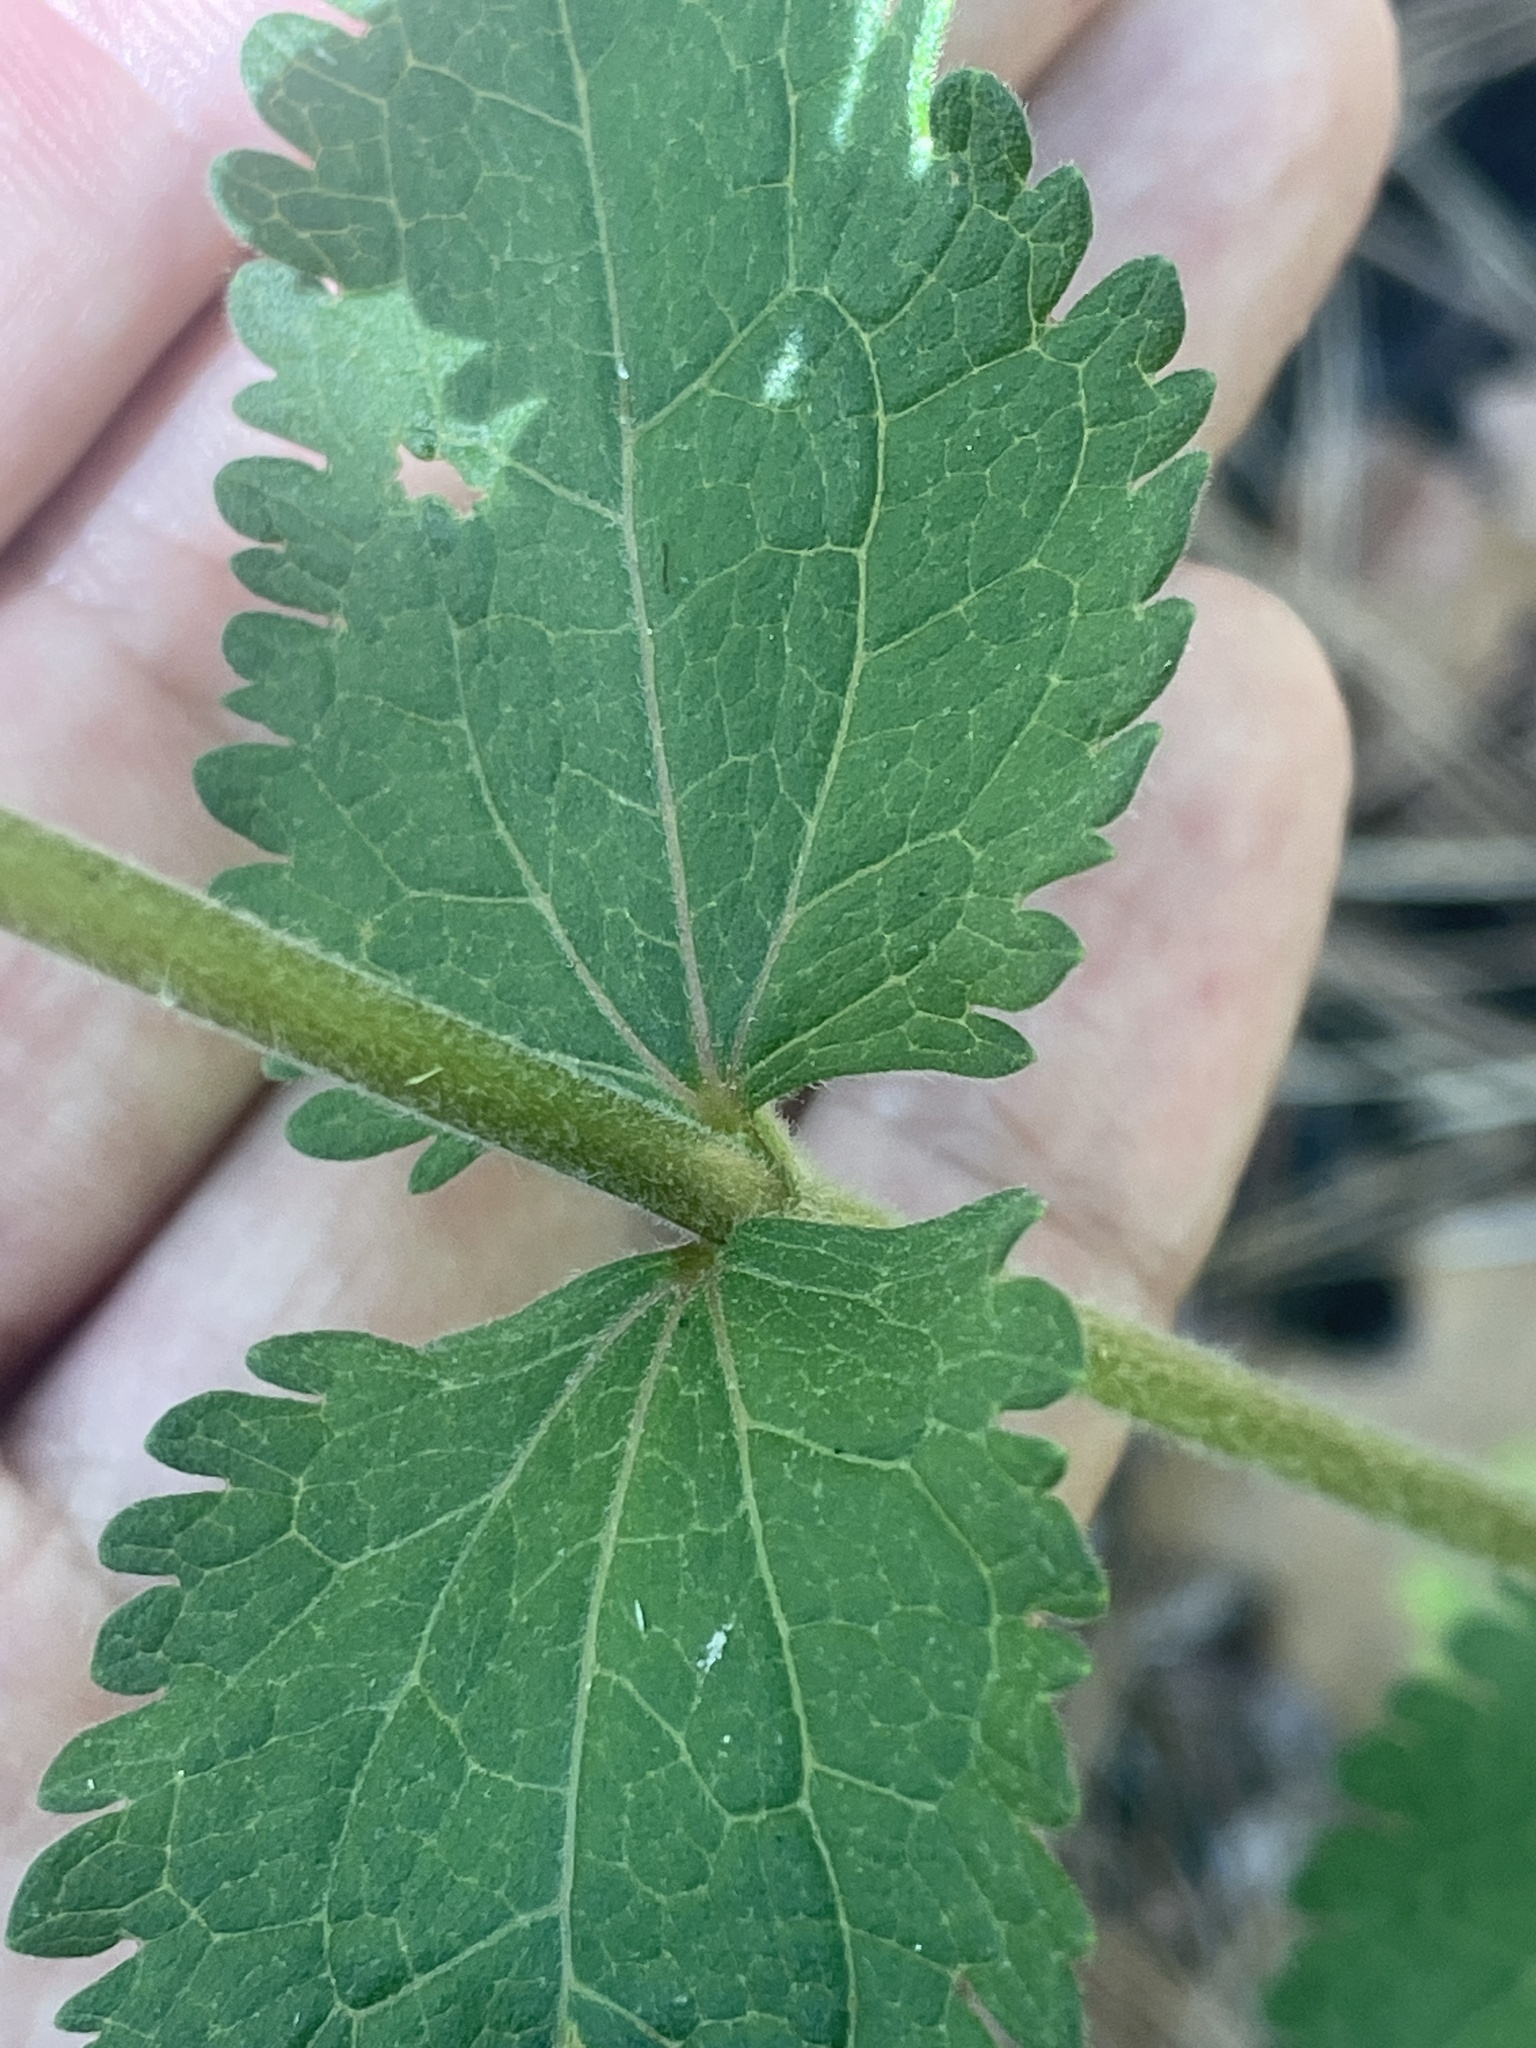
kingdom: Plantae
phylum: Tracheophyta
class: Magnoliopsida
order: Asterales
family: Asteraceae
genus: Eupatorium
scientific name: Eupatorium rotundifolium
